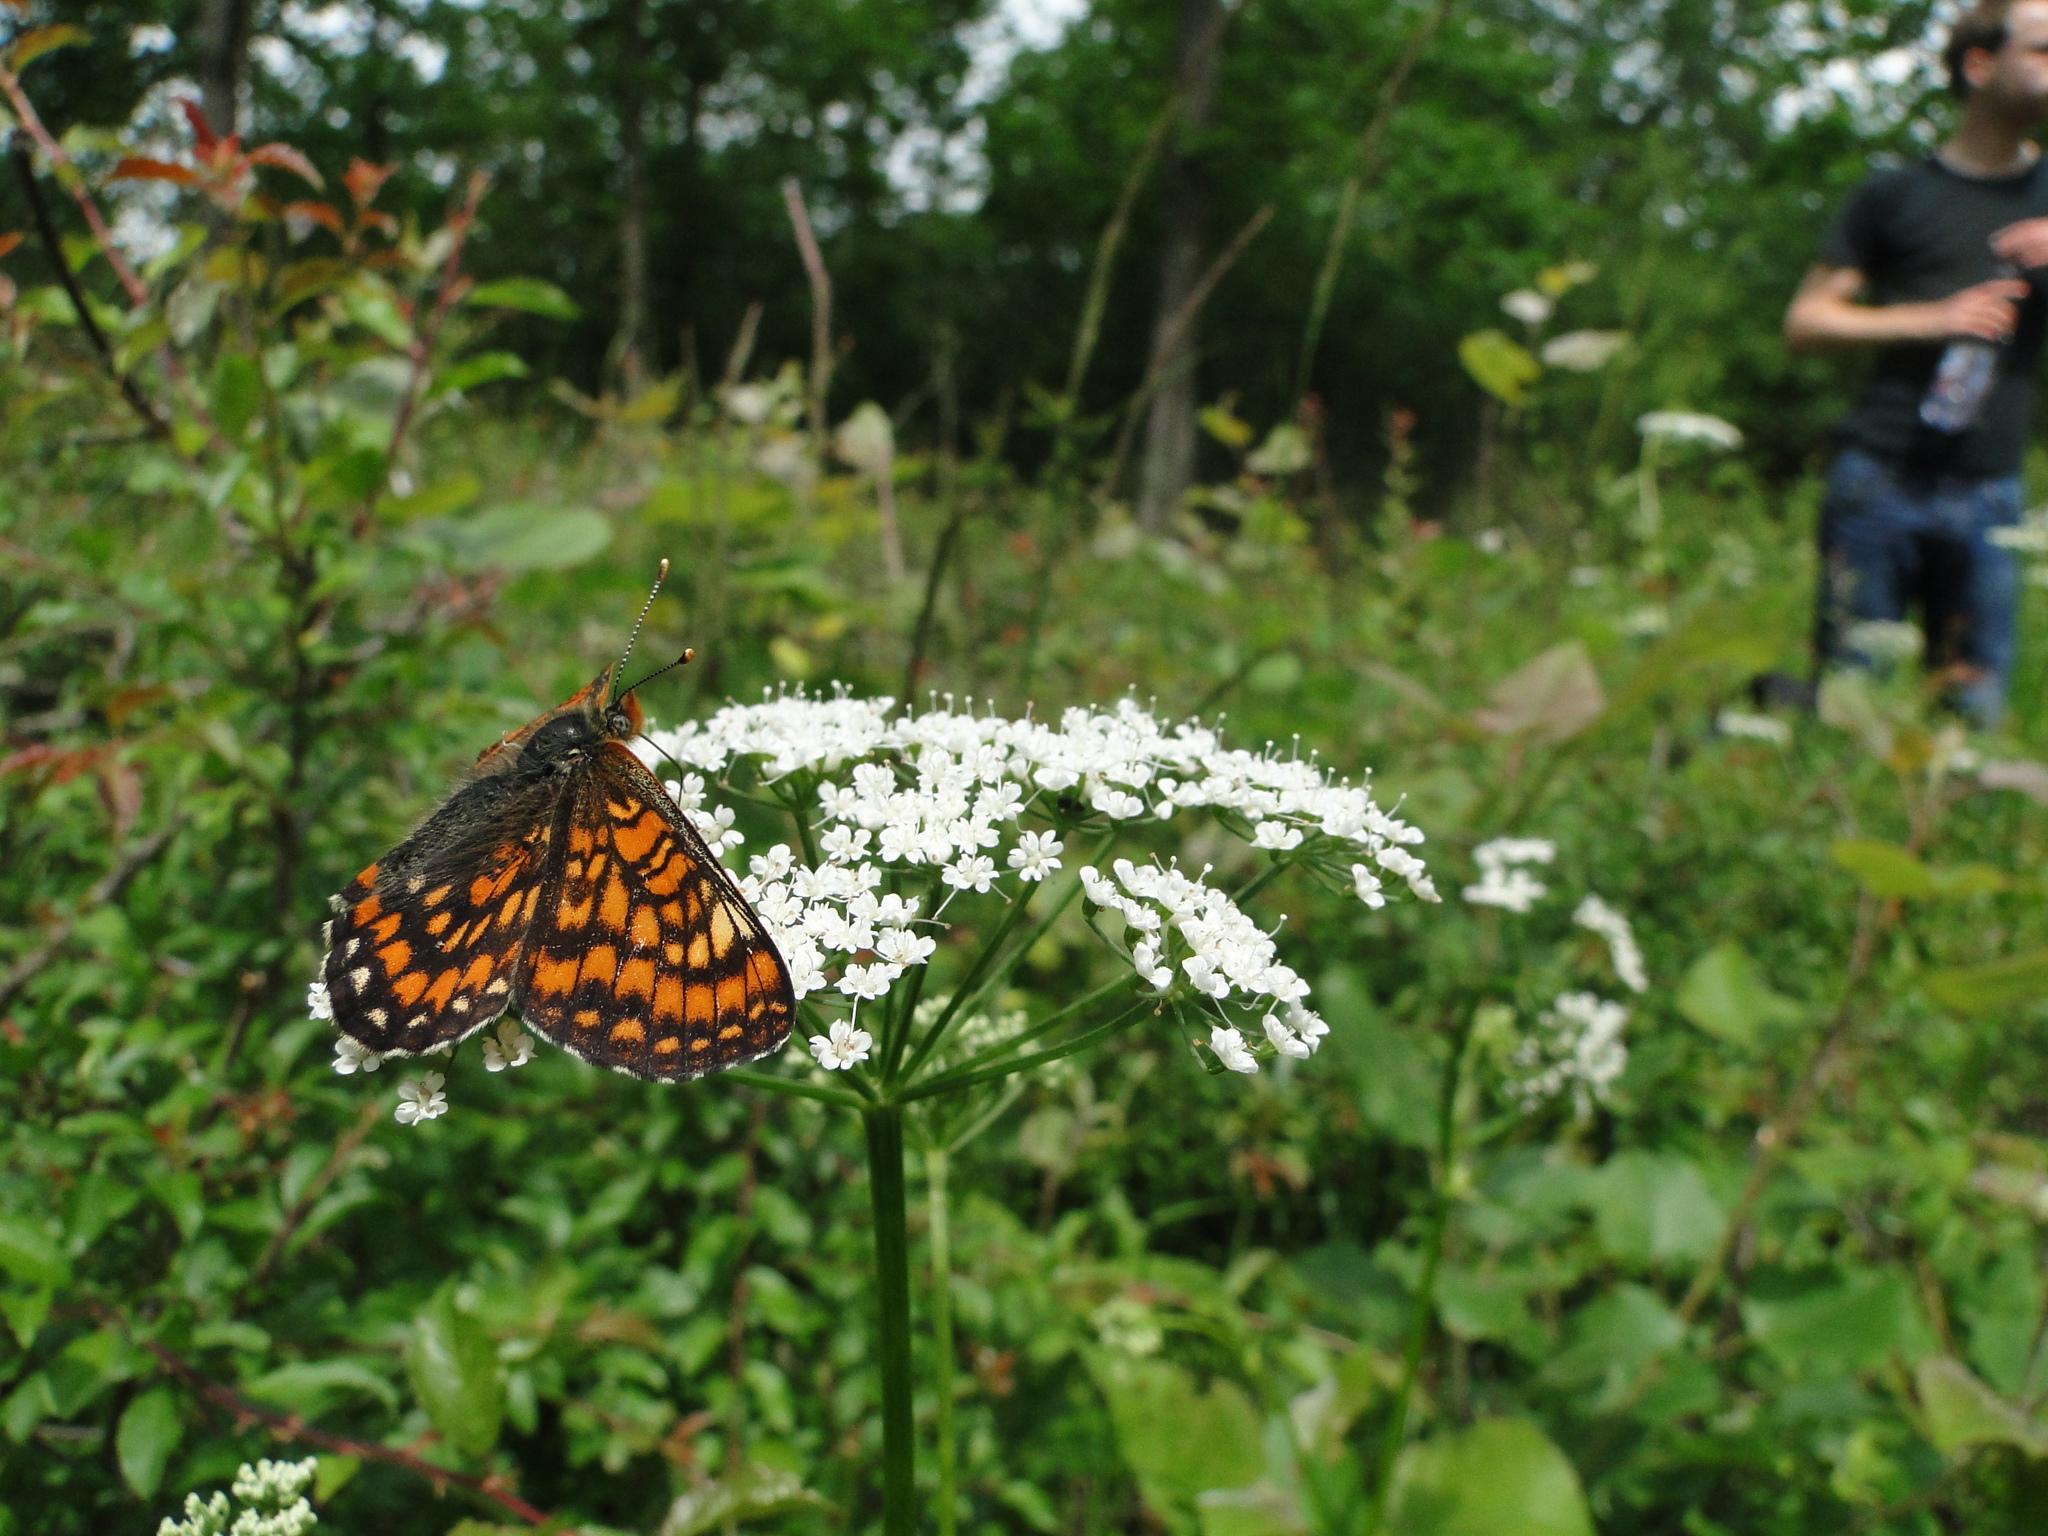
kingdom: Animalia
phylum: Arthropoda
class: Insecta
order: Lepidoptera
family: Nymphalidae
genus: Euphydryas
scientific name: Euphydryas maturna
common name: Scarce fritillary
